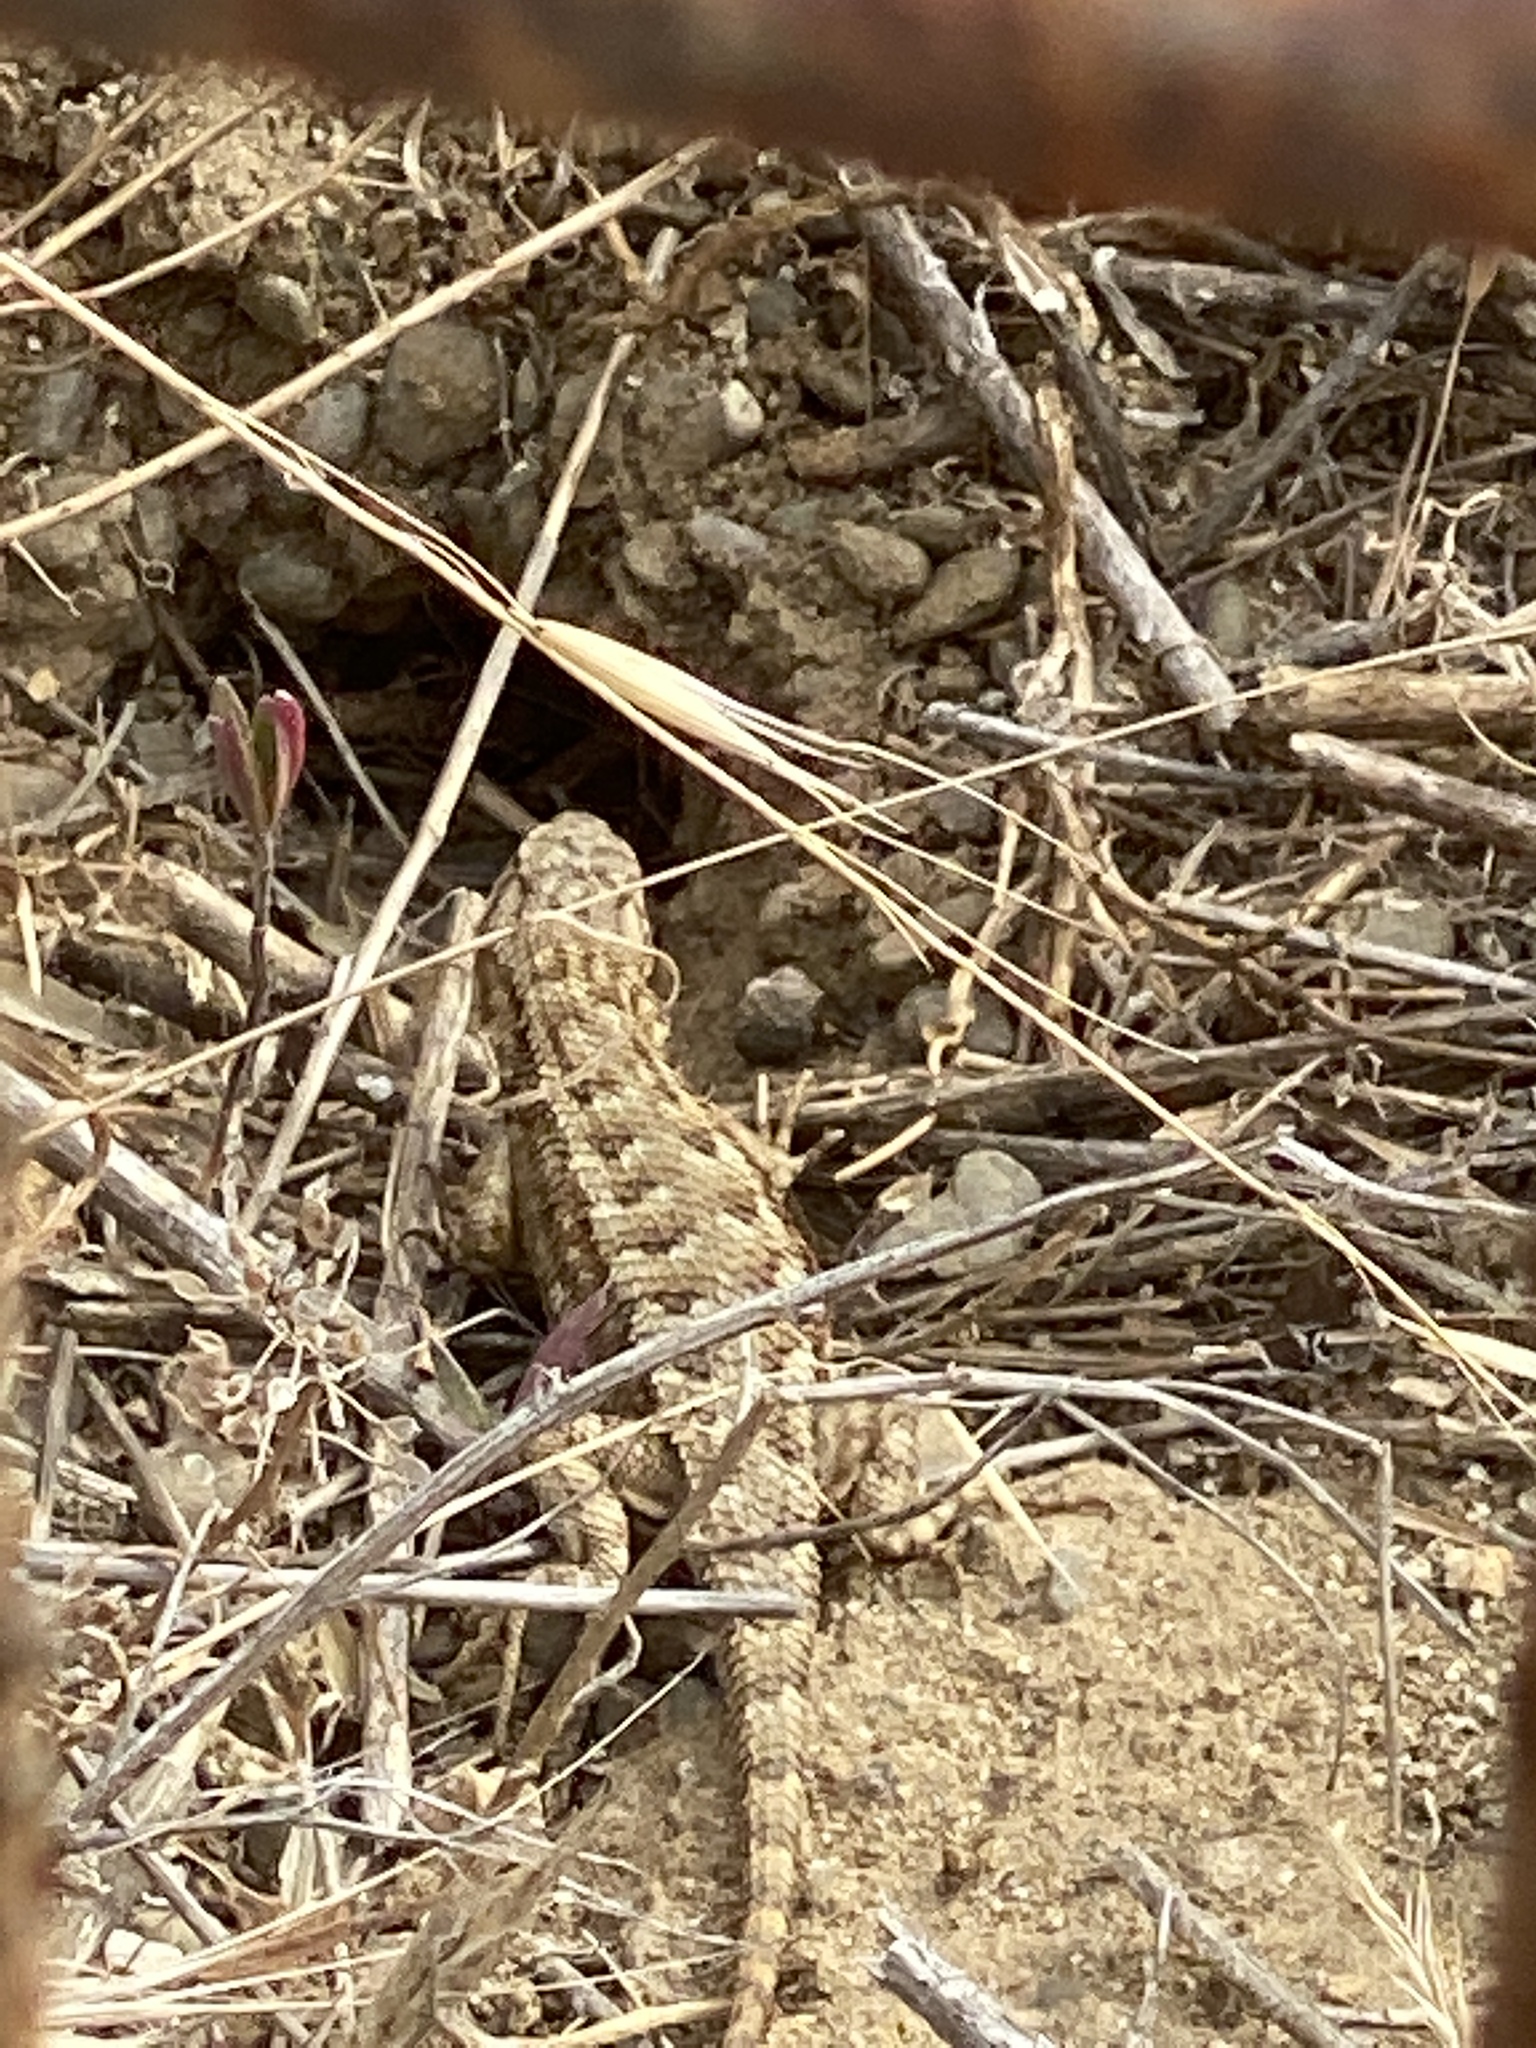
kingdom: Animalia
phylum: Chordata
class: Squamata
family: Phrynosomatidae
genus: Sceloporus
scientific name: Sceloporus occidentalis
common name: Western fence lizard
